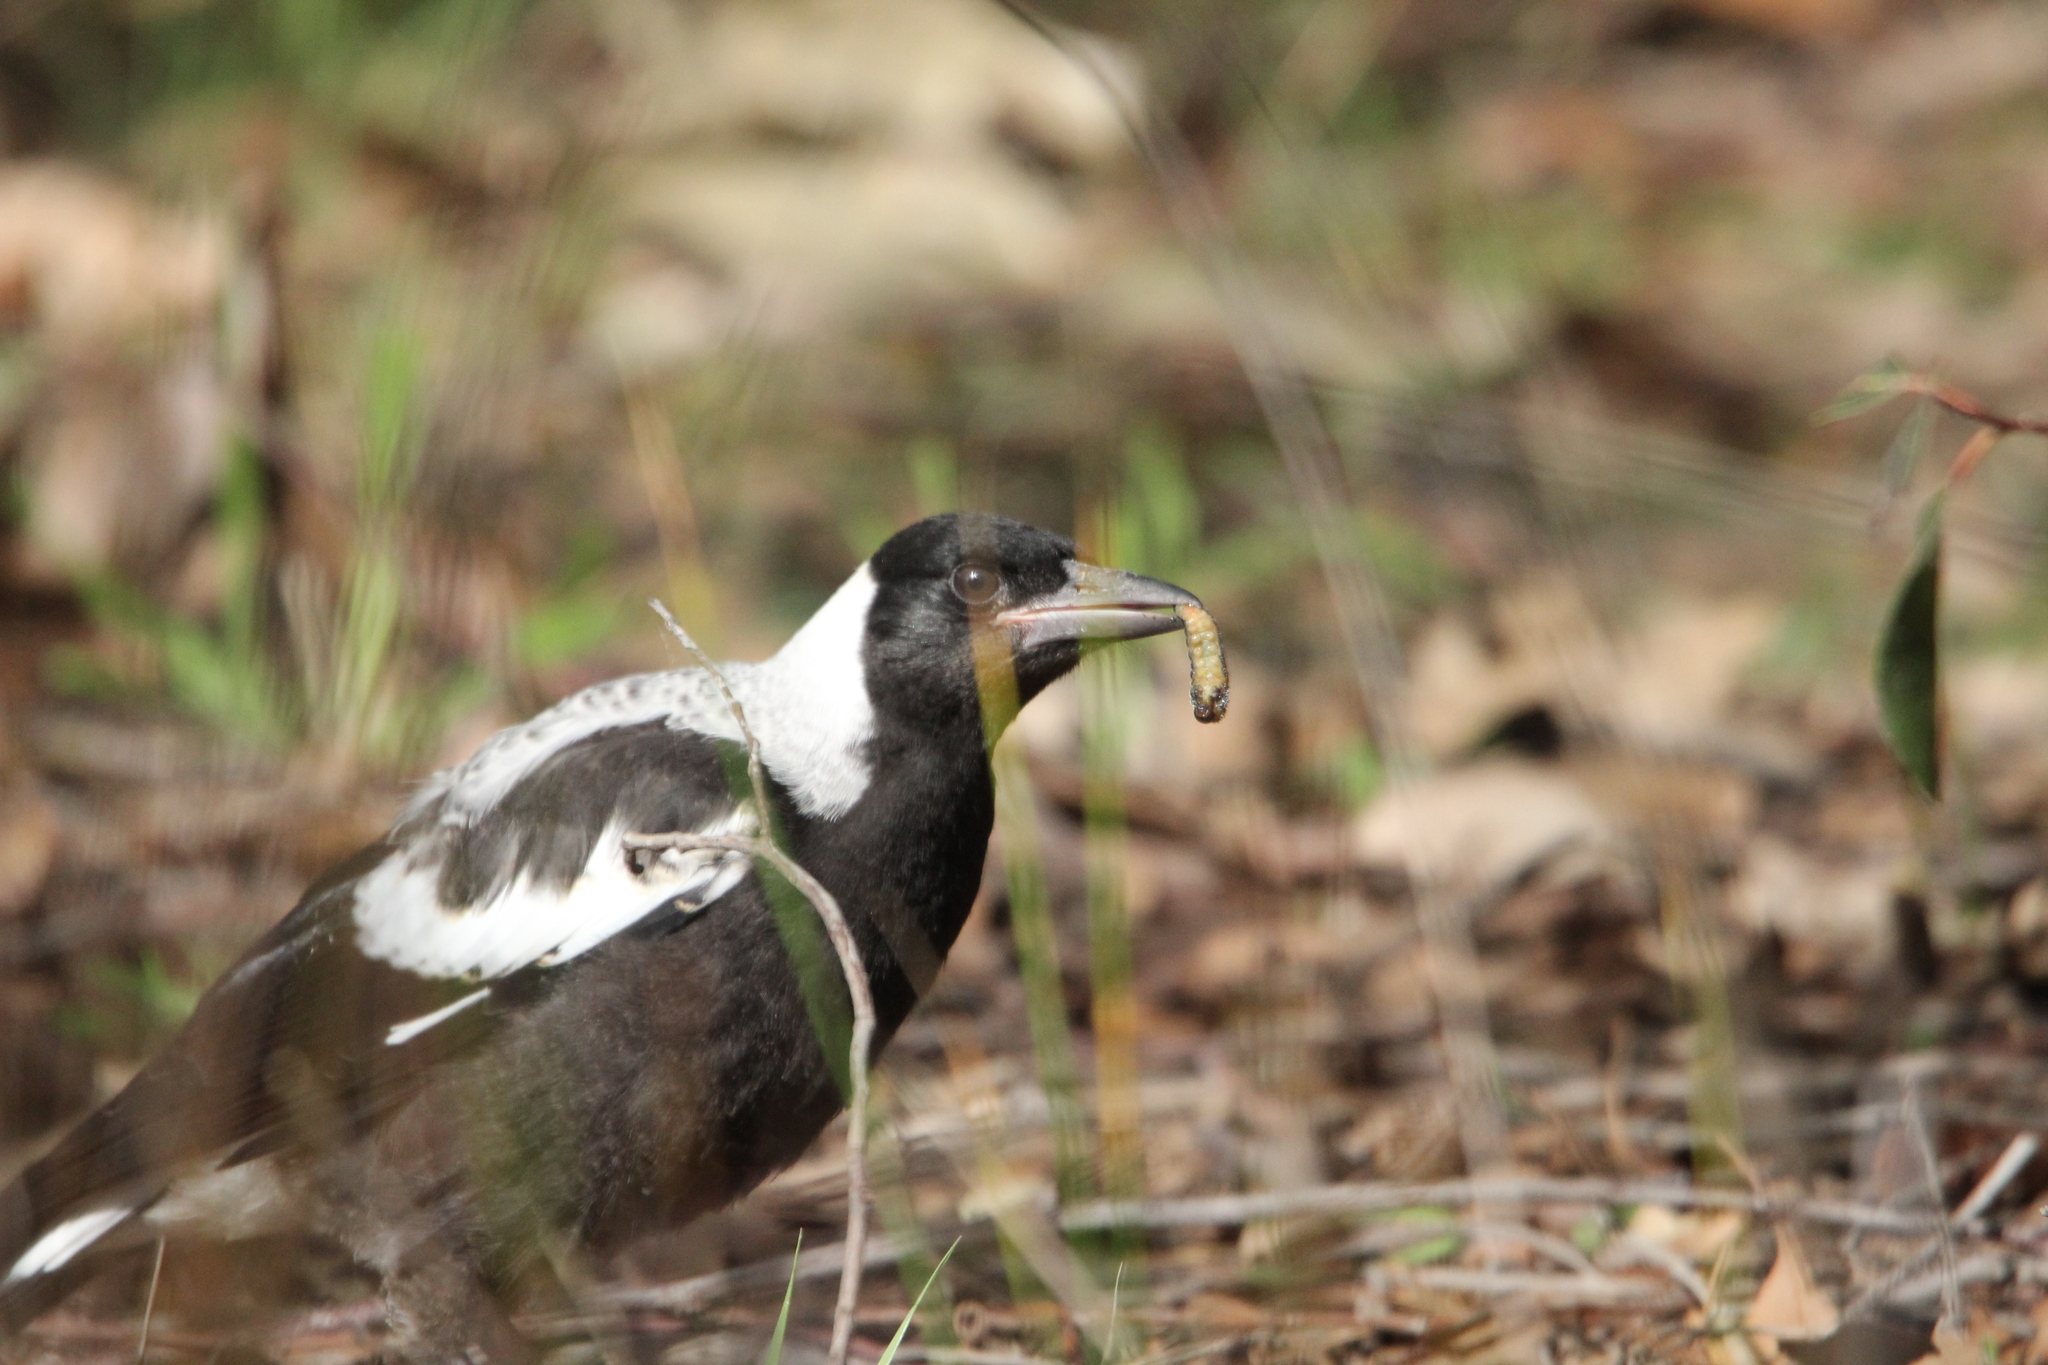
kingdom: Animalia
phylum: Chordata
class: Aves
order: Passeriformes
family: Cracticidae
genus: Gymnorhina
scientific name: Gymnorhina tibicen
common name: Australian magpie
